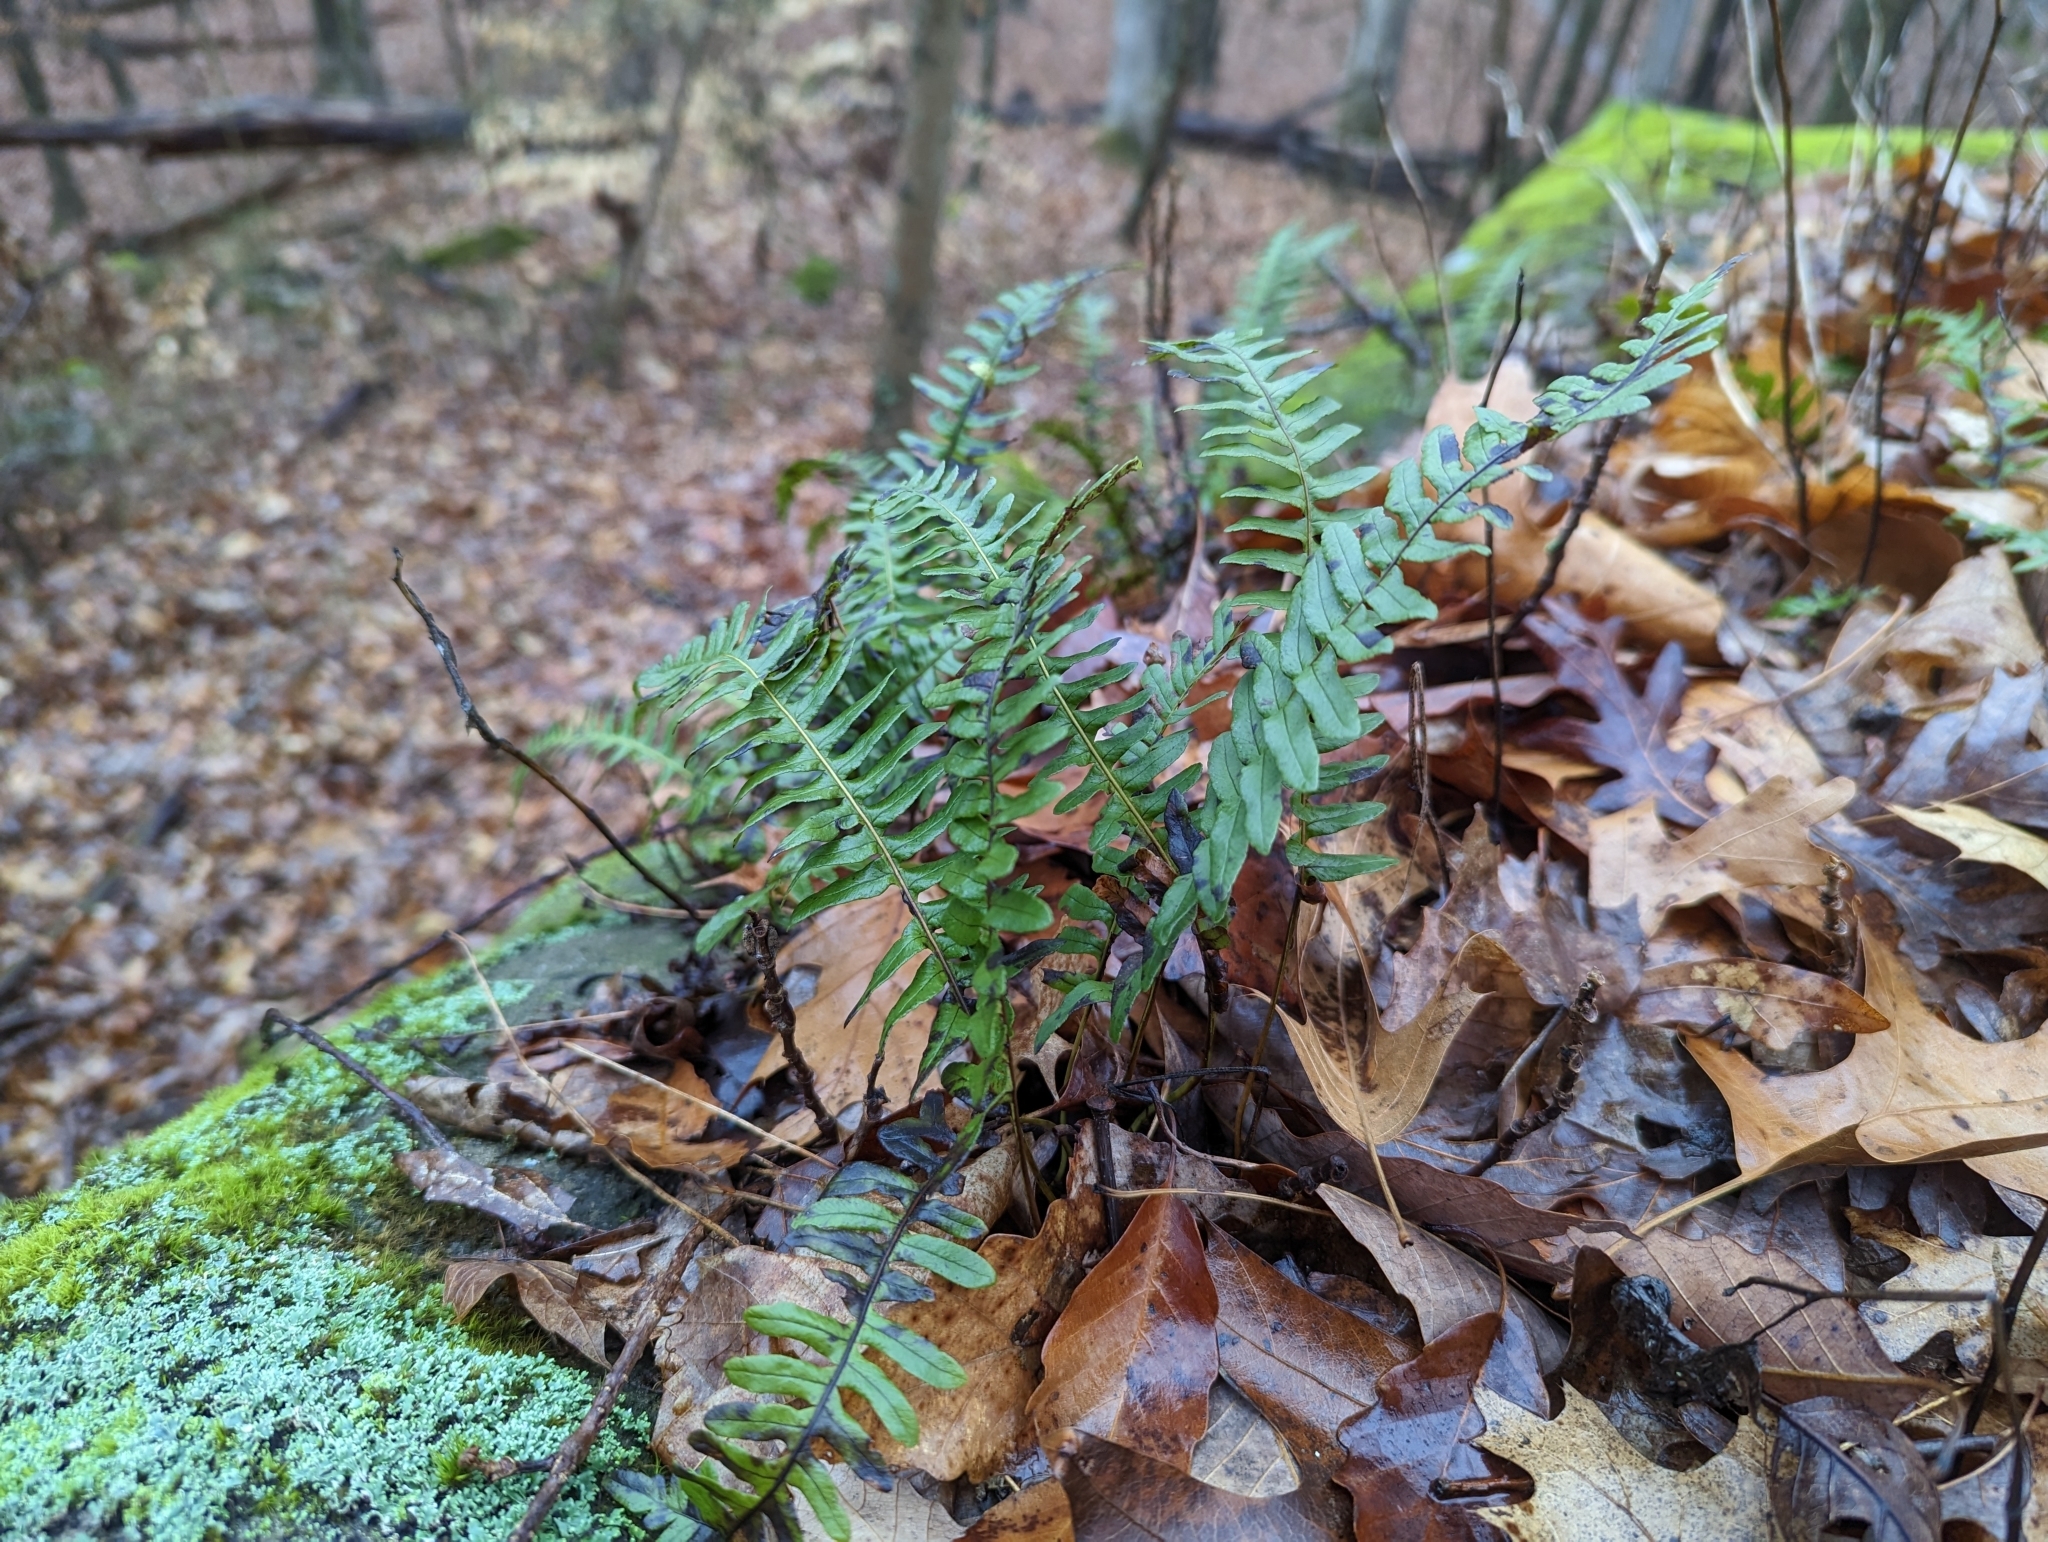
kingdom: Plantae
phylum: Tracheophyta
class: Polypodiopsida
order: Polypodiales
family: Polypodiaceae
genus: Polypodium
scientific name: Polypodium virginianum
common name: American wall fern
